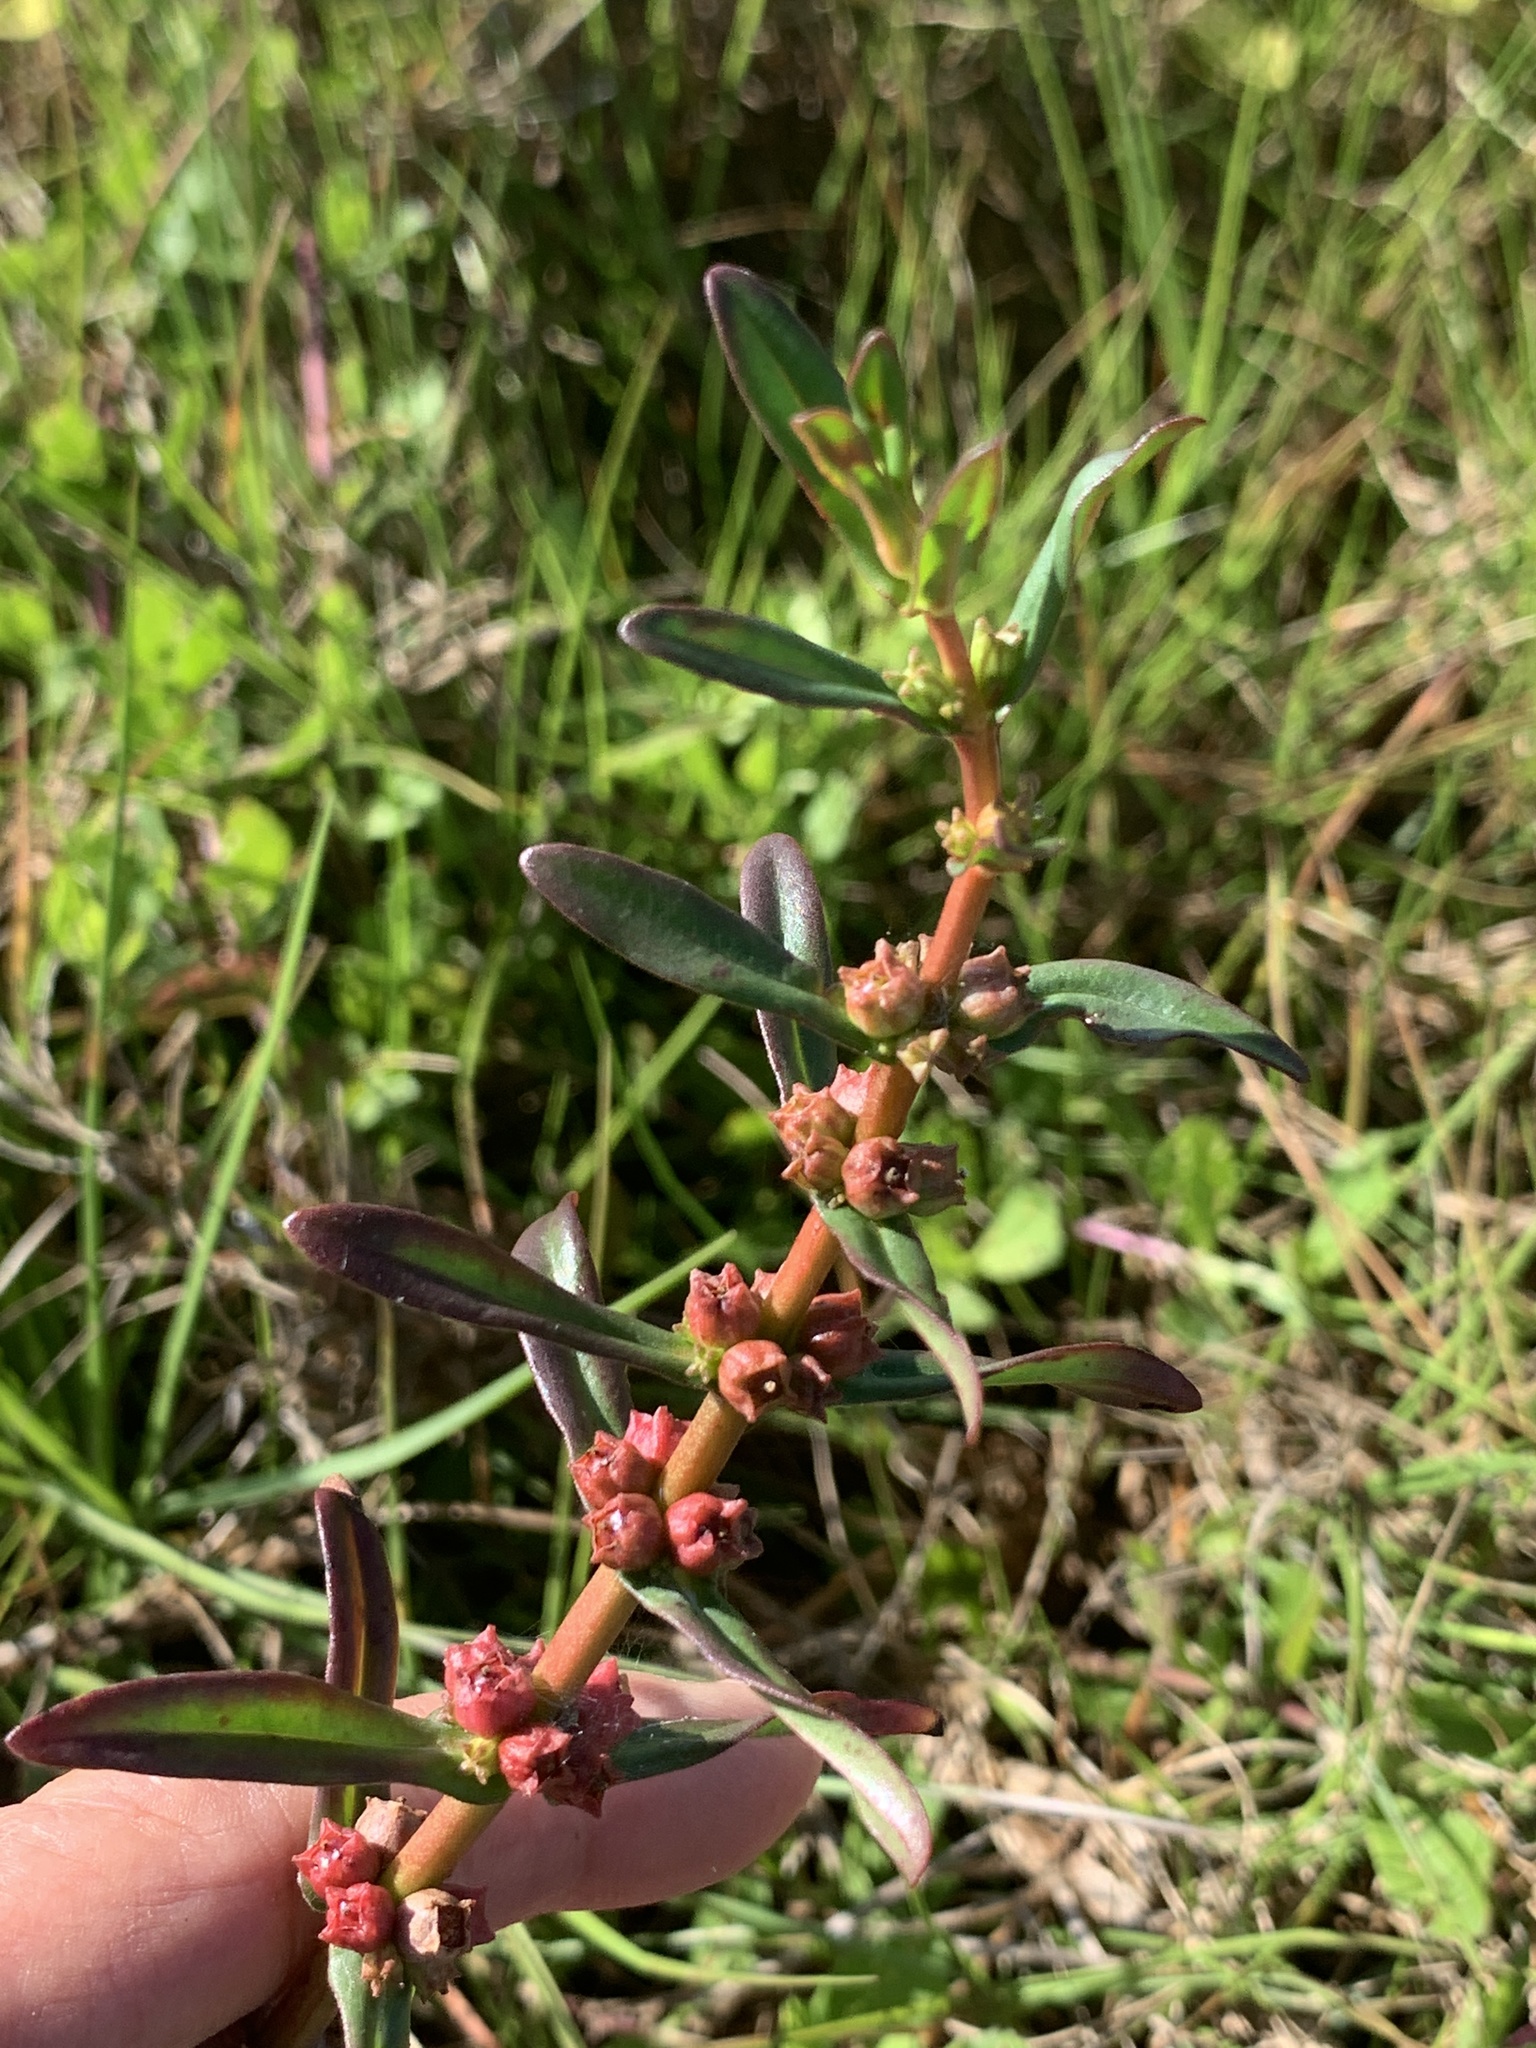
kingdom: Plantae
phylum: Tracheophyta
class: Magnoliopsida
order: Myrtales
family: Lythraceae
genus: Ammannia
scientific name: Ammannia latifolia
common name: Toothcup
